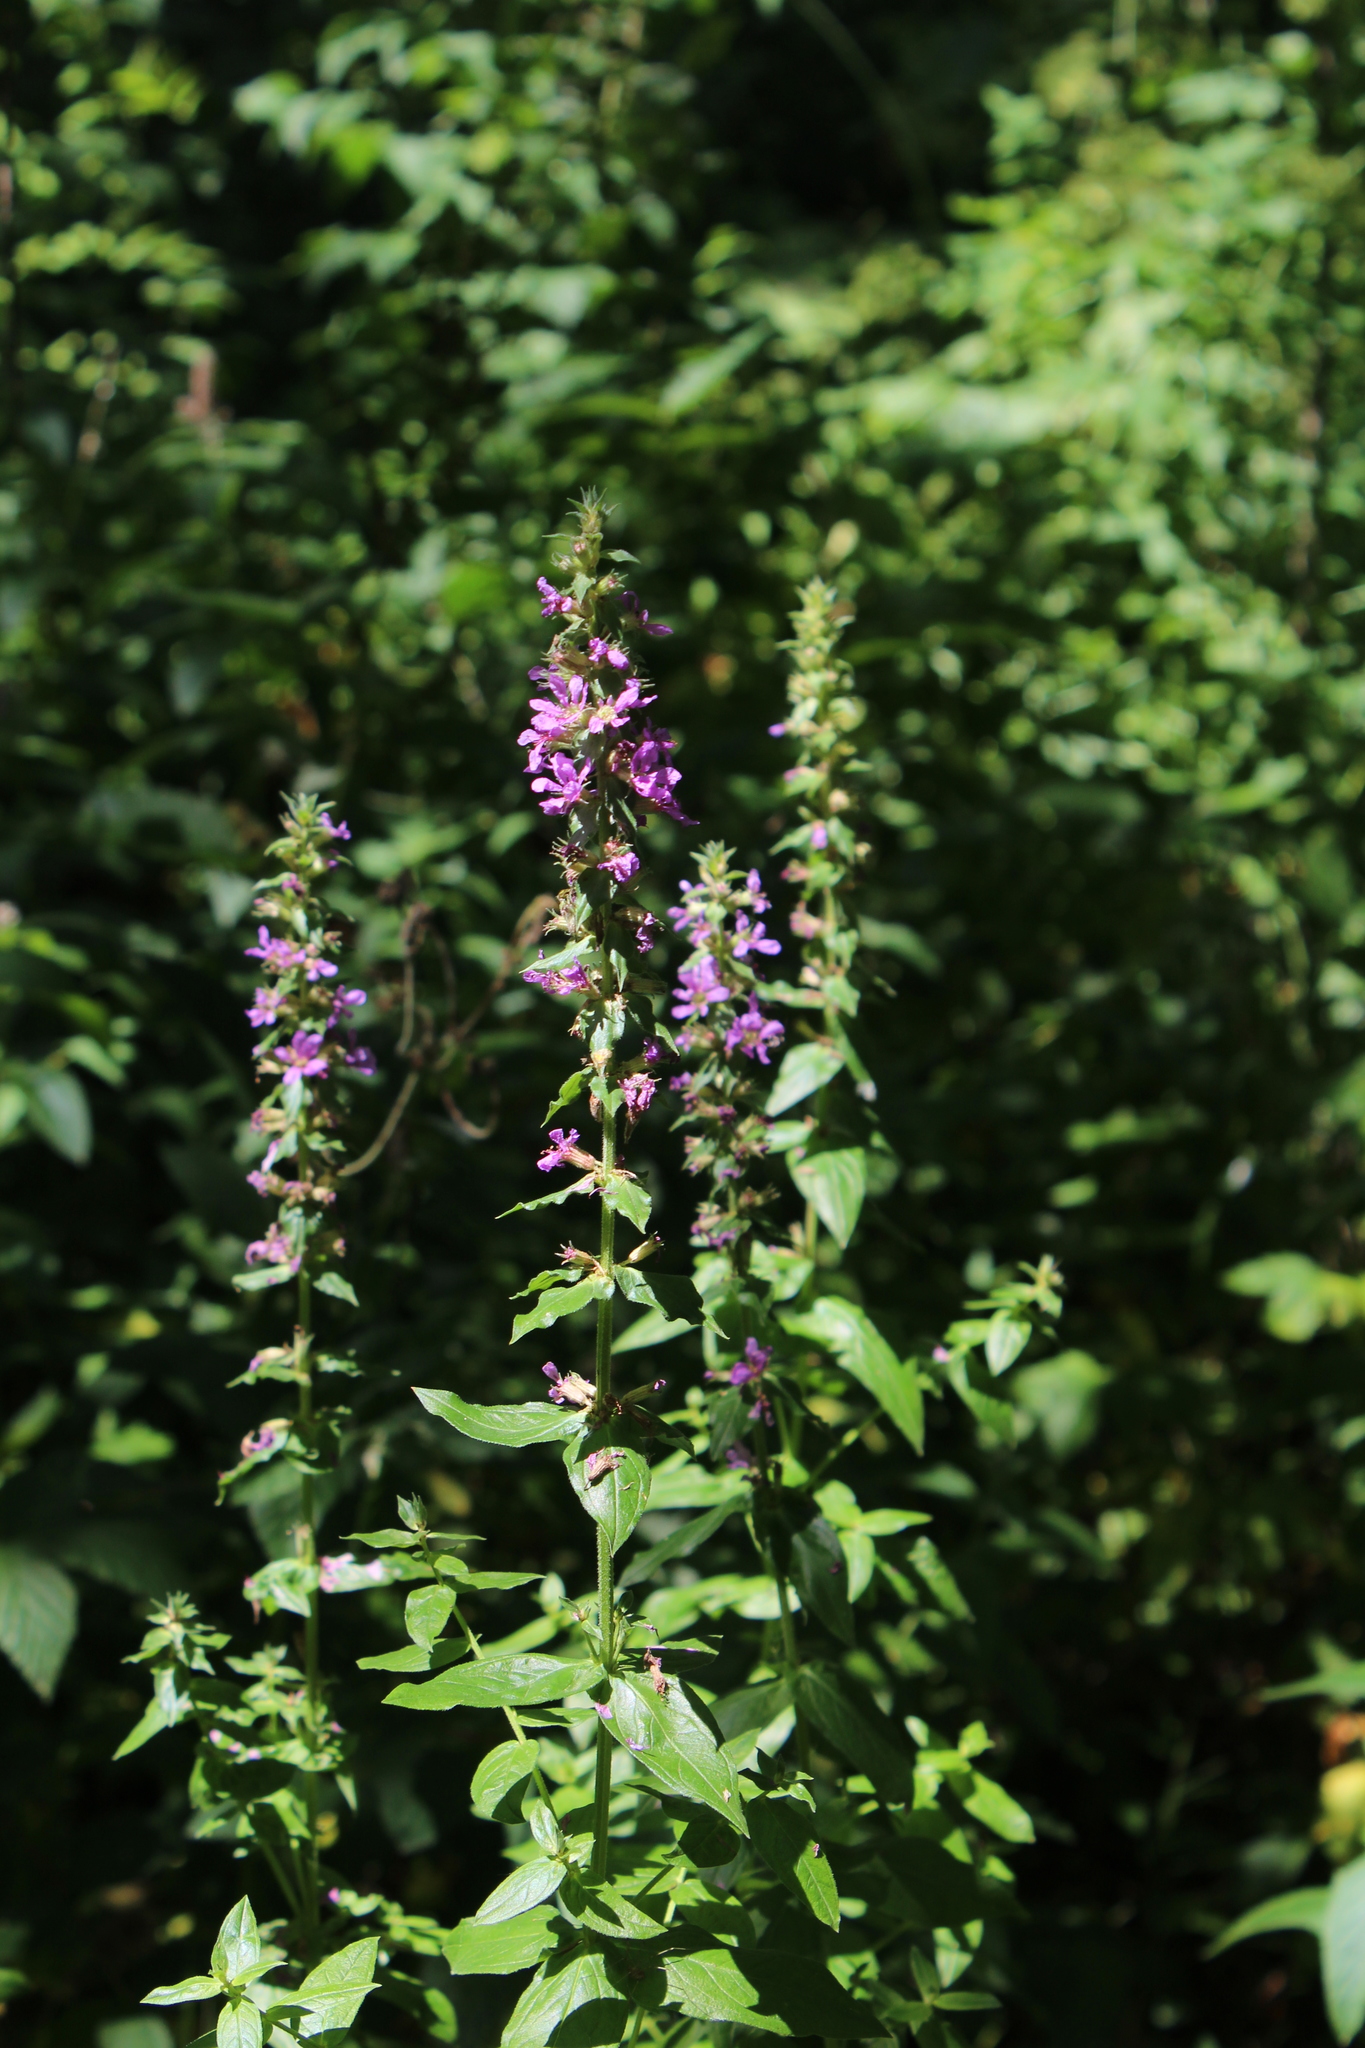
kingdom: Plantae
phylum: Tracheophyta
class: Magnoliopsida
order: Myrtales
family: Lythraceae
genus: Lythrum
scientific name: Lythrum salicaria
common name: Purple loosestrife
